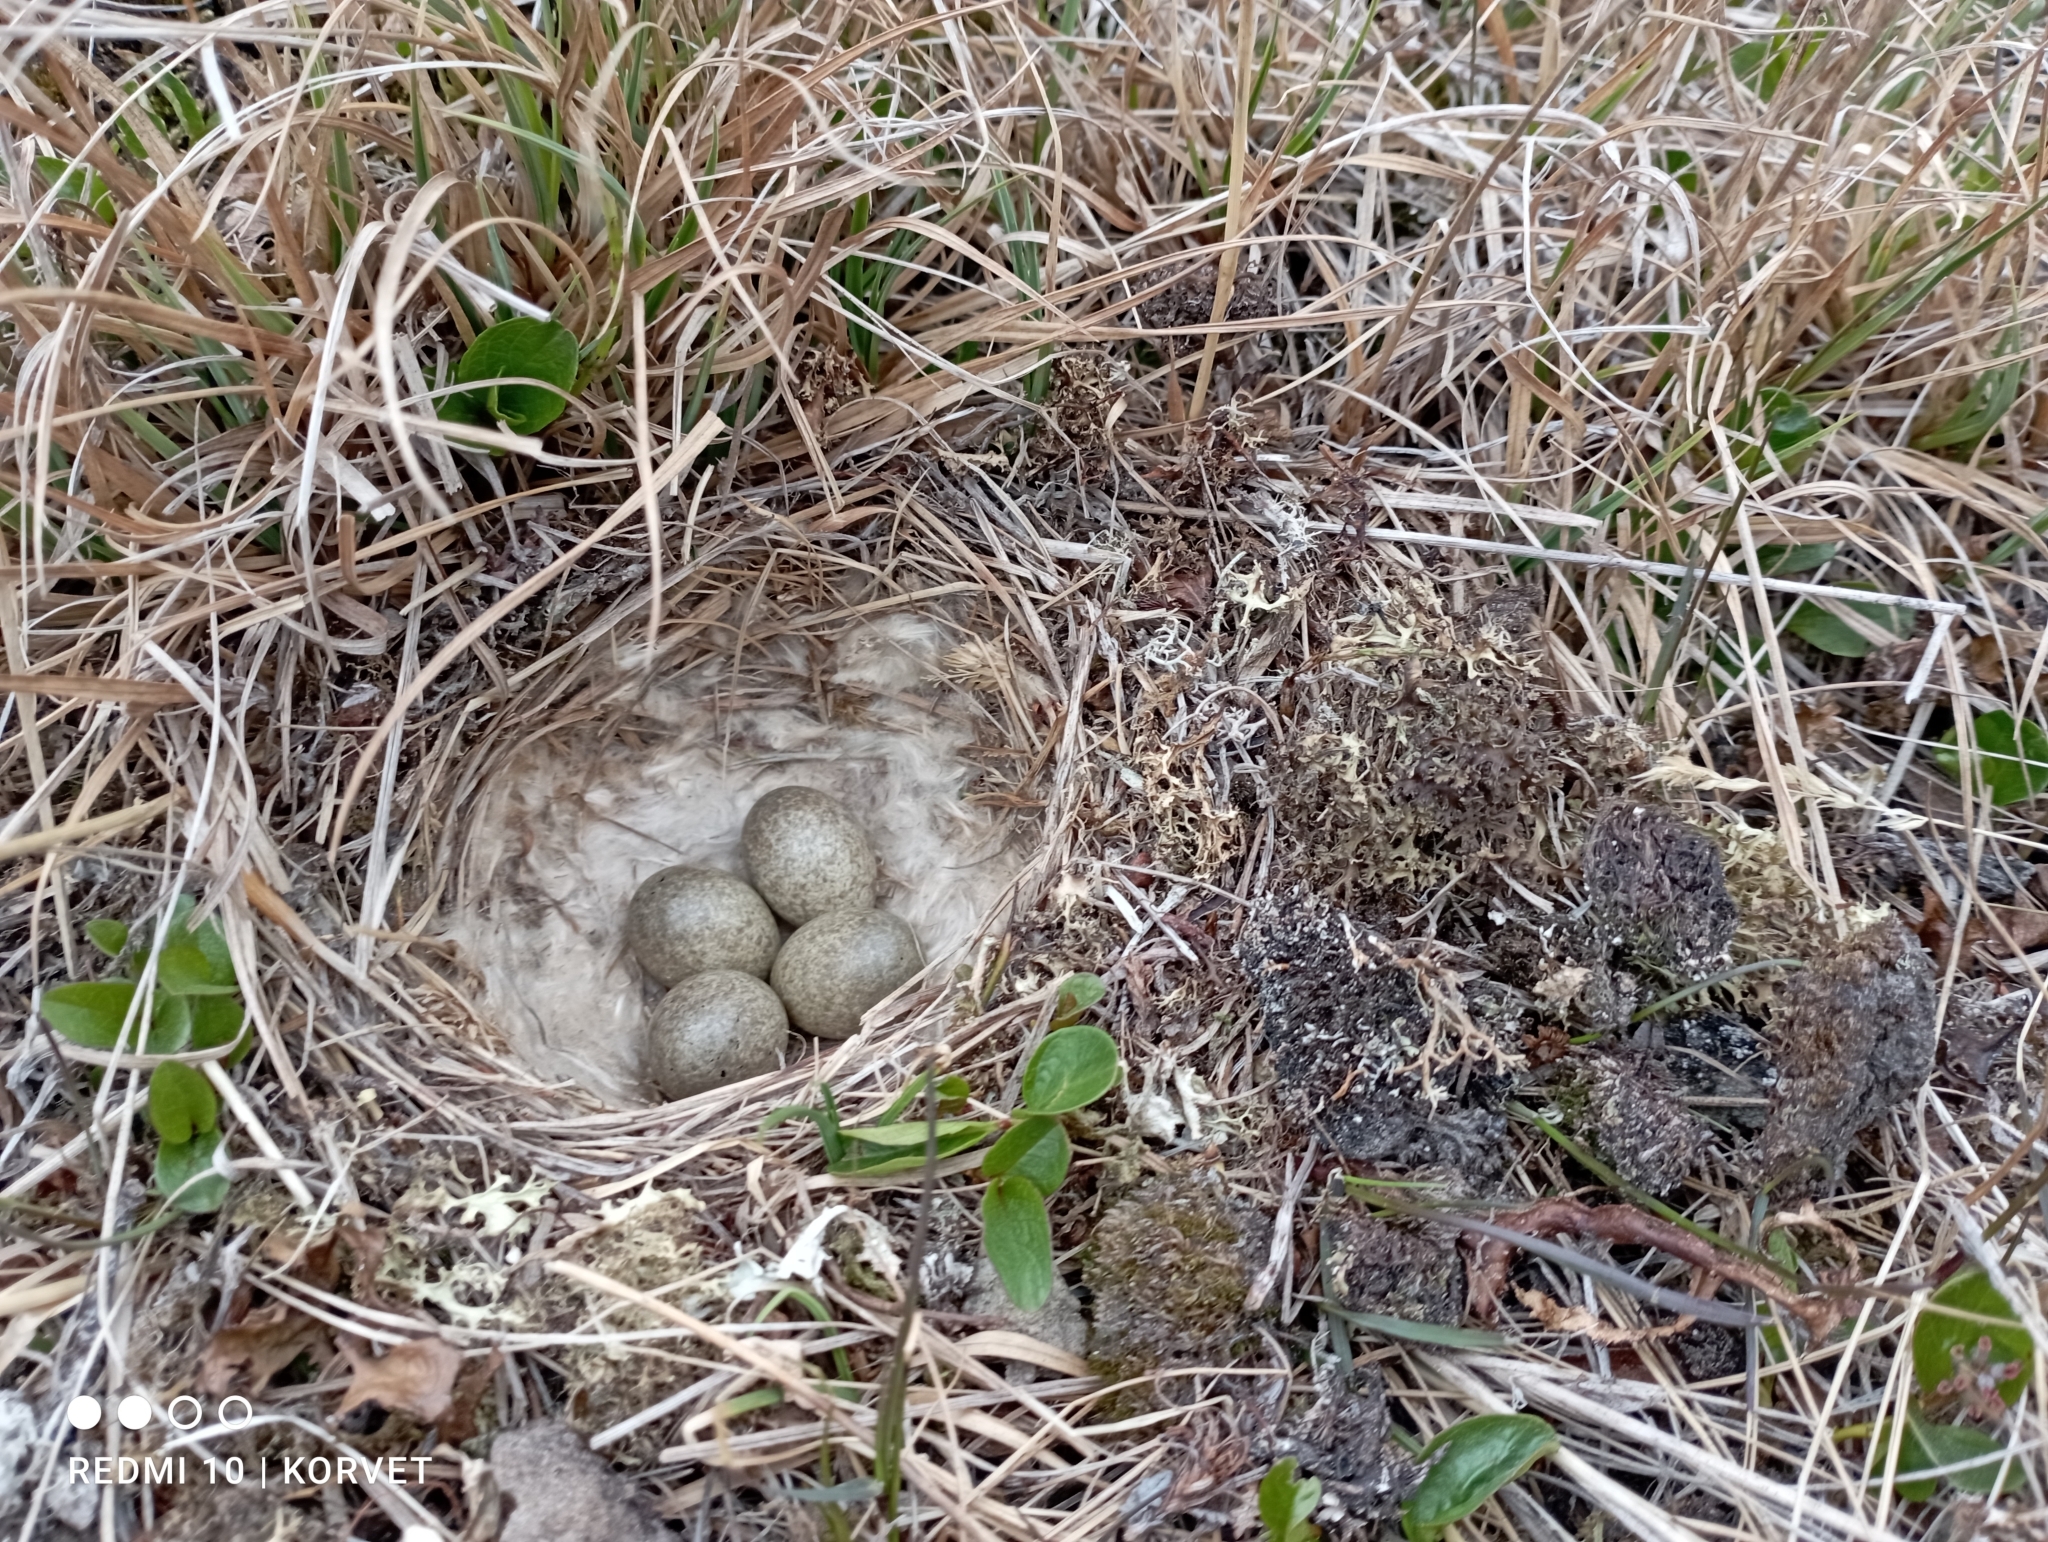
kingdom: Animalia
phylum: Chordata
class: Aves
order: Charadriiformes
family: Scolopacidae
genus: Calidris
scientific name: Calidris temminckii
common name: Temminck's stint
